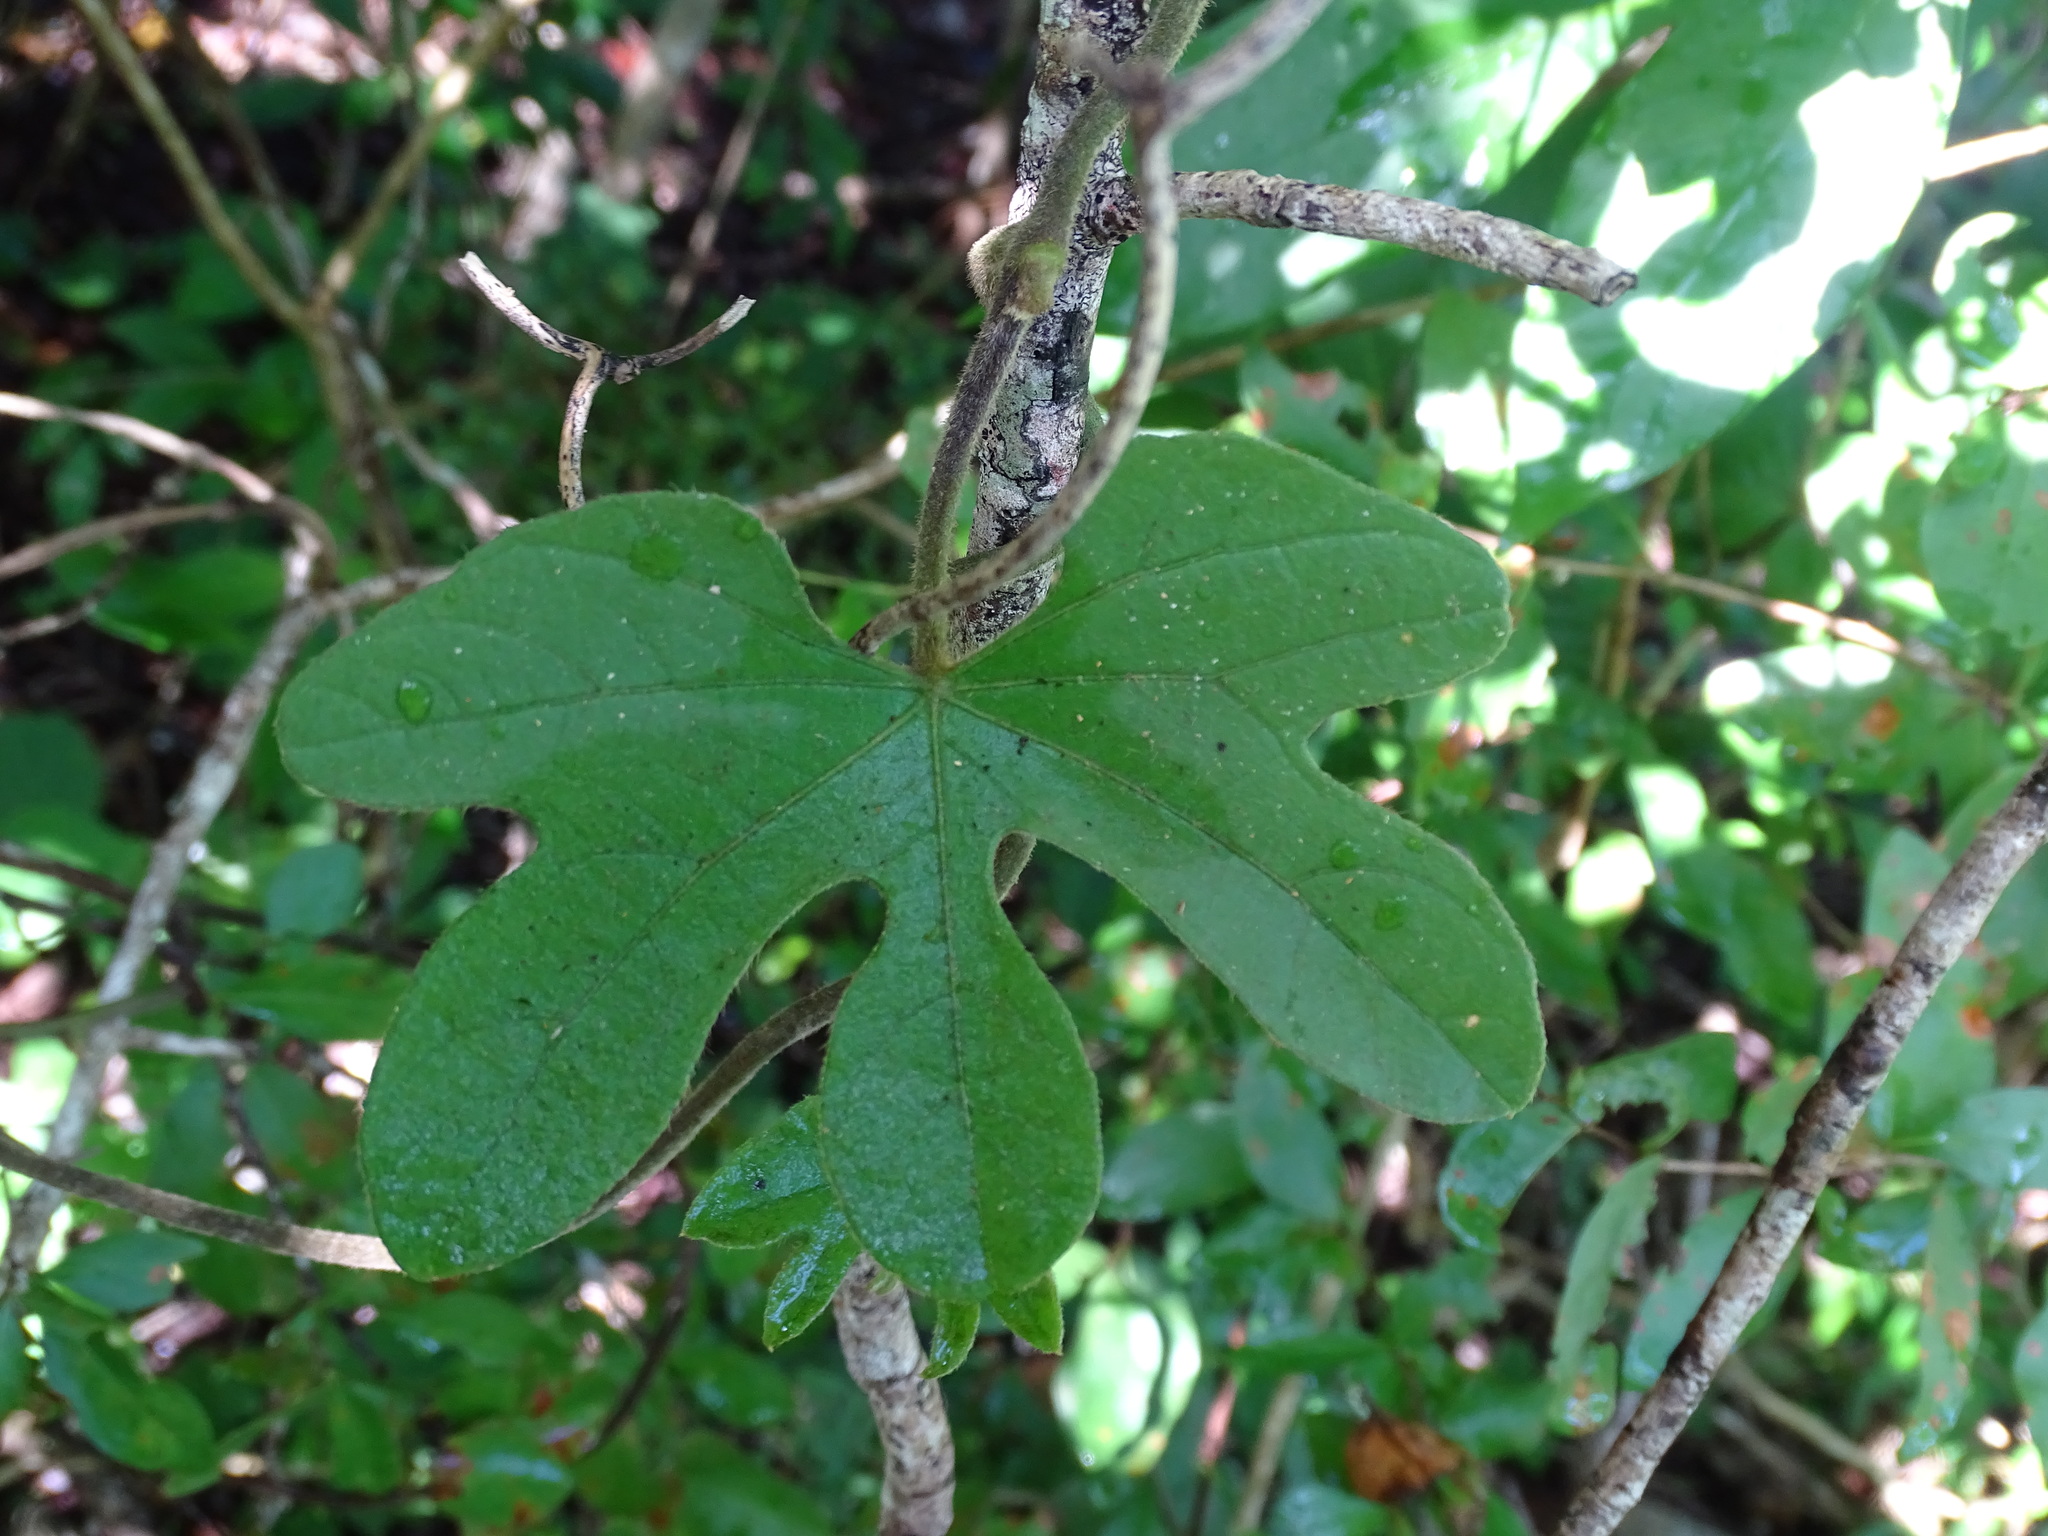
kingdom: Plantae
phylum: Tracheophyta
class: Magnoliopsida
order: Solanales
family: Convolvulaceae
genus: Ipomoea
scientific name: Ipomoea peteri
